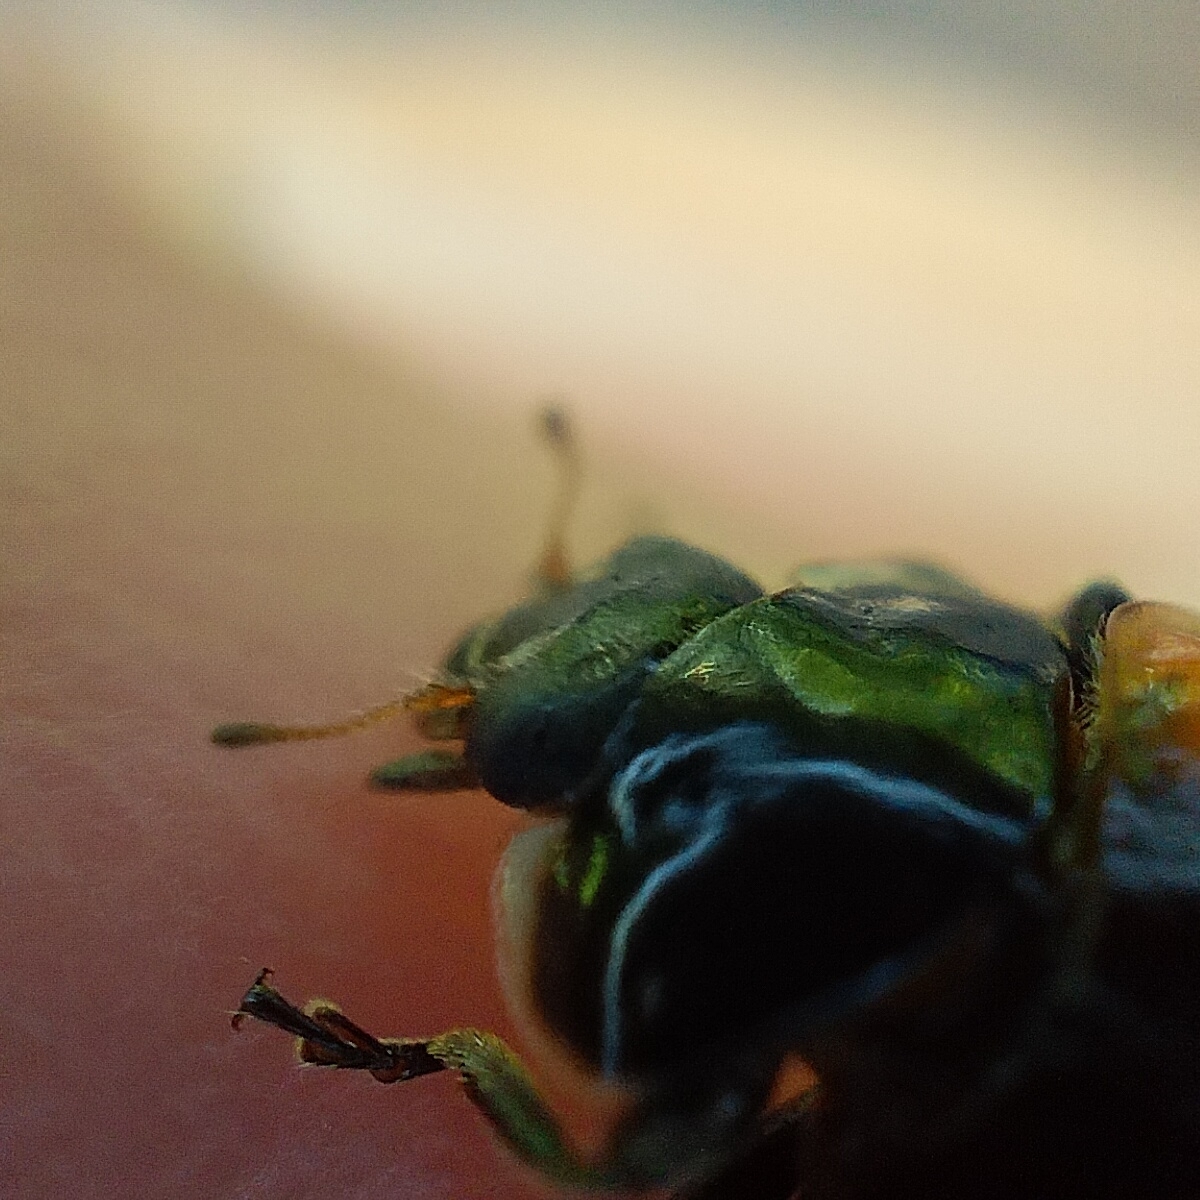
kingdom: Animalia
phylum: Arthropoda
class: Insecta
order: Coleoptera
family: Coccinellidae
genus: Adalia
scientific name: Adalia bipunctata
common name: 2-spot ladybird
